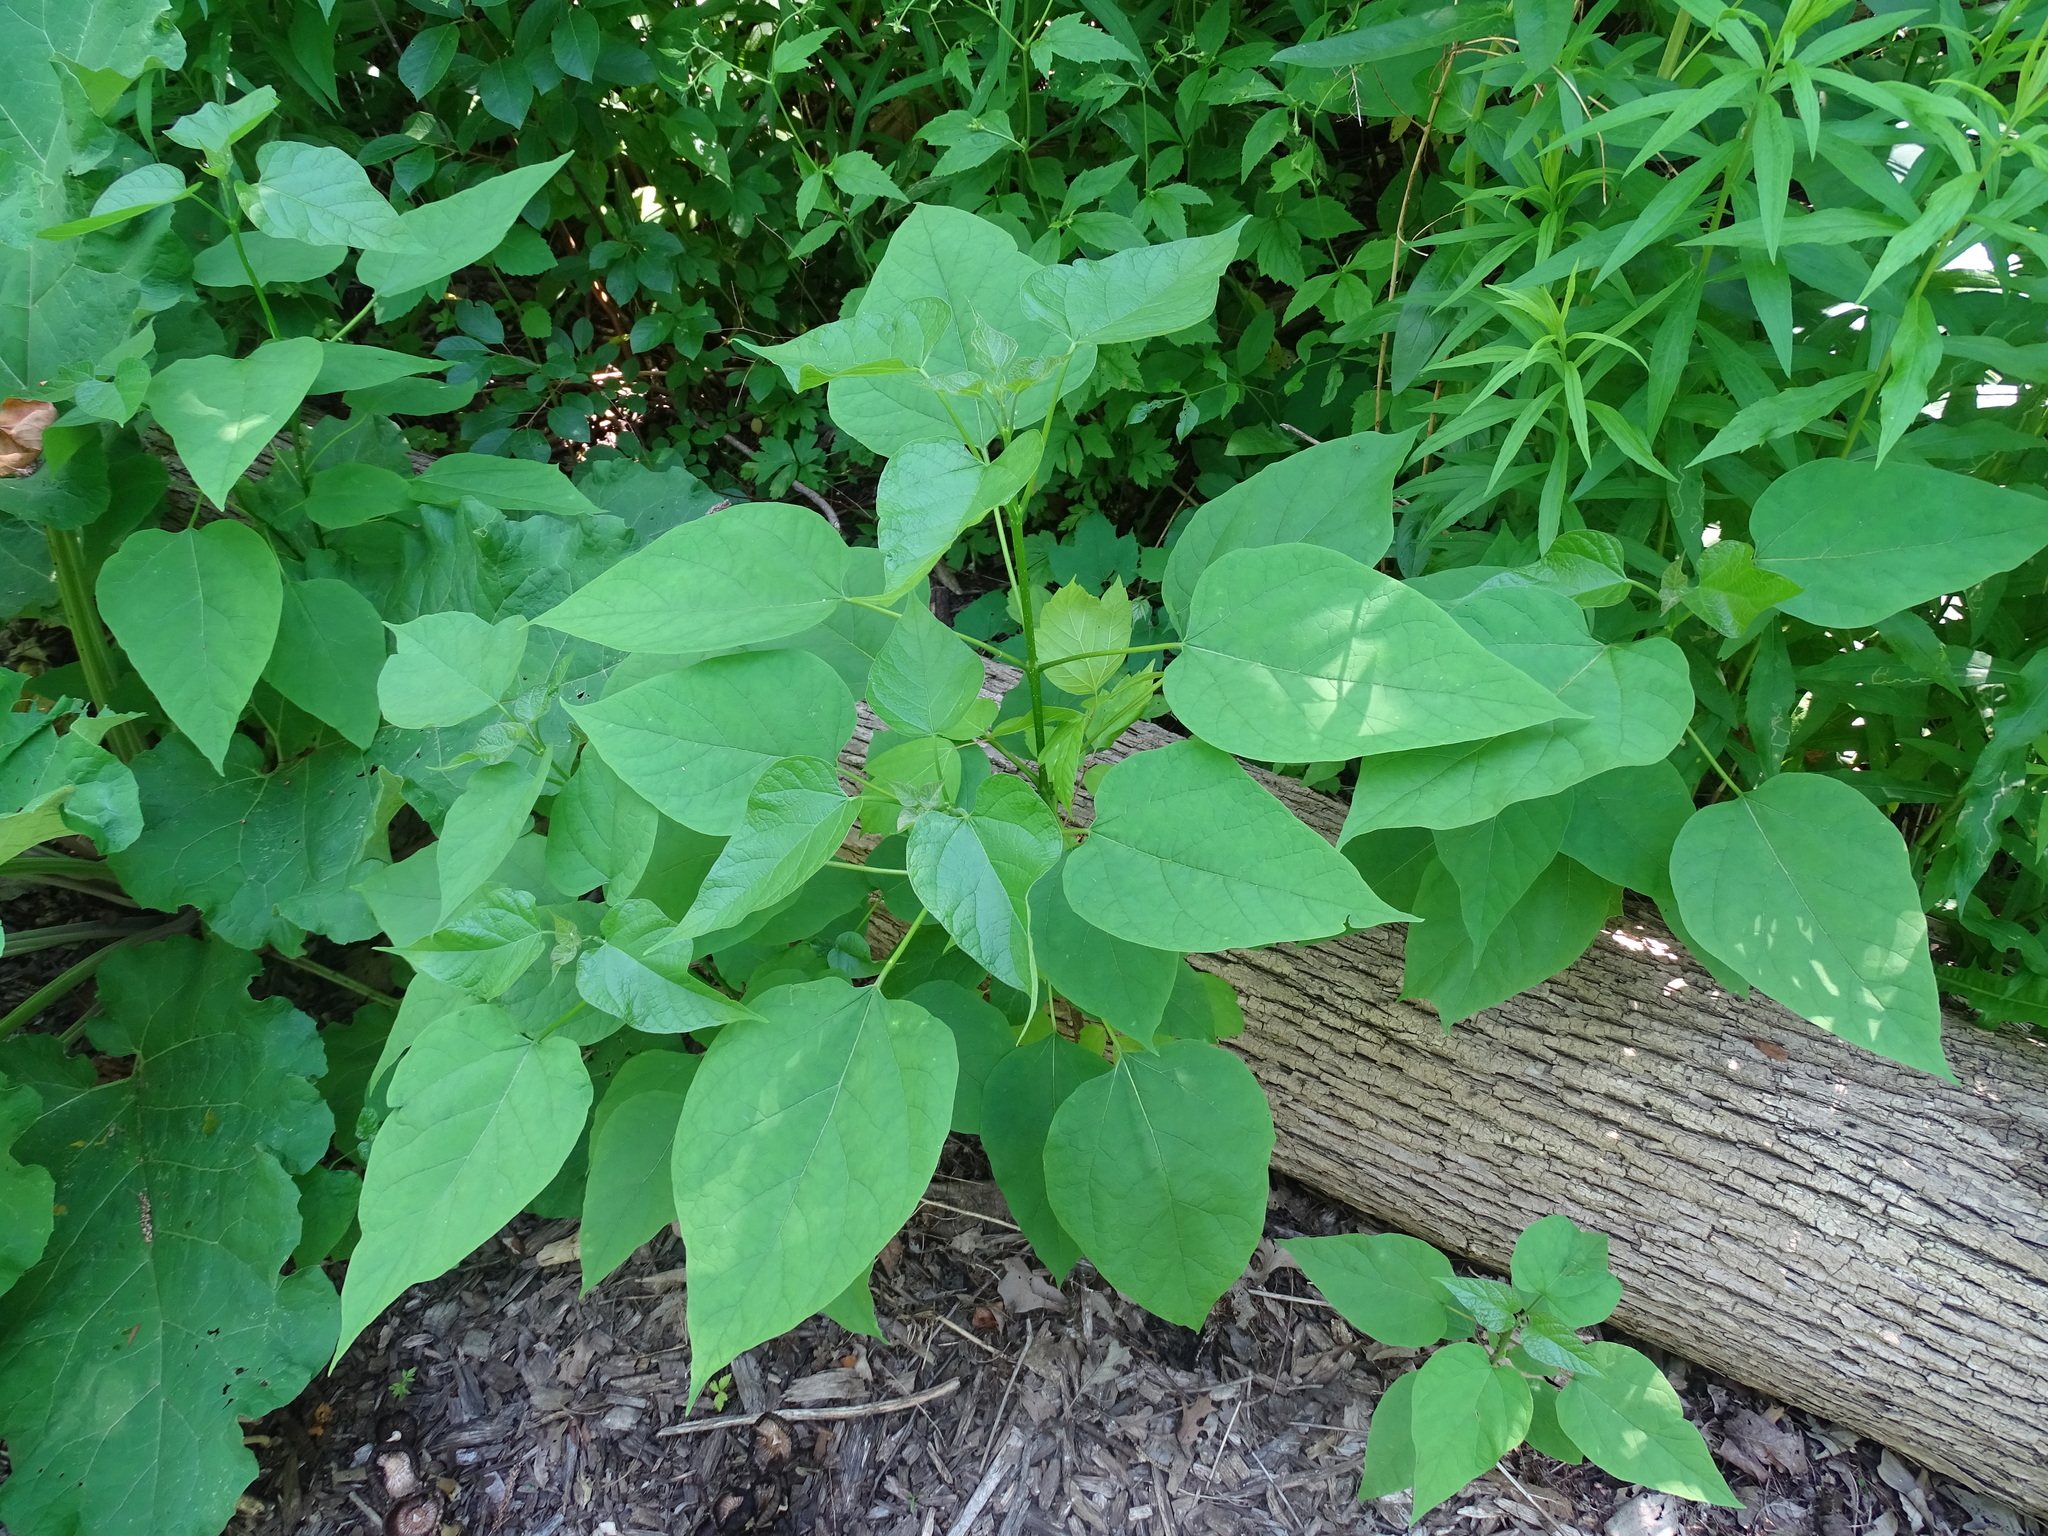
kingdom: Plantae
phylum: Tracheophyta
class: Magnoliopsida
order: Lamiales
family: Bignoniaceae
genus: Catalpa
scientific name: Catalpa speciosa
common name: Northern catalpa
